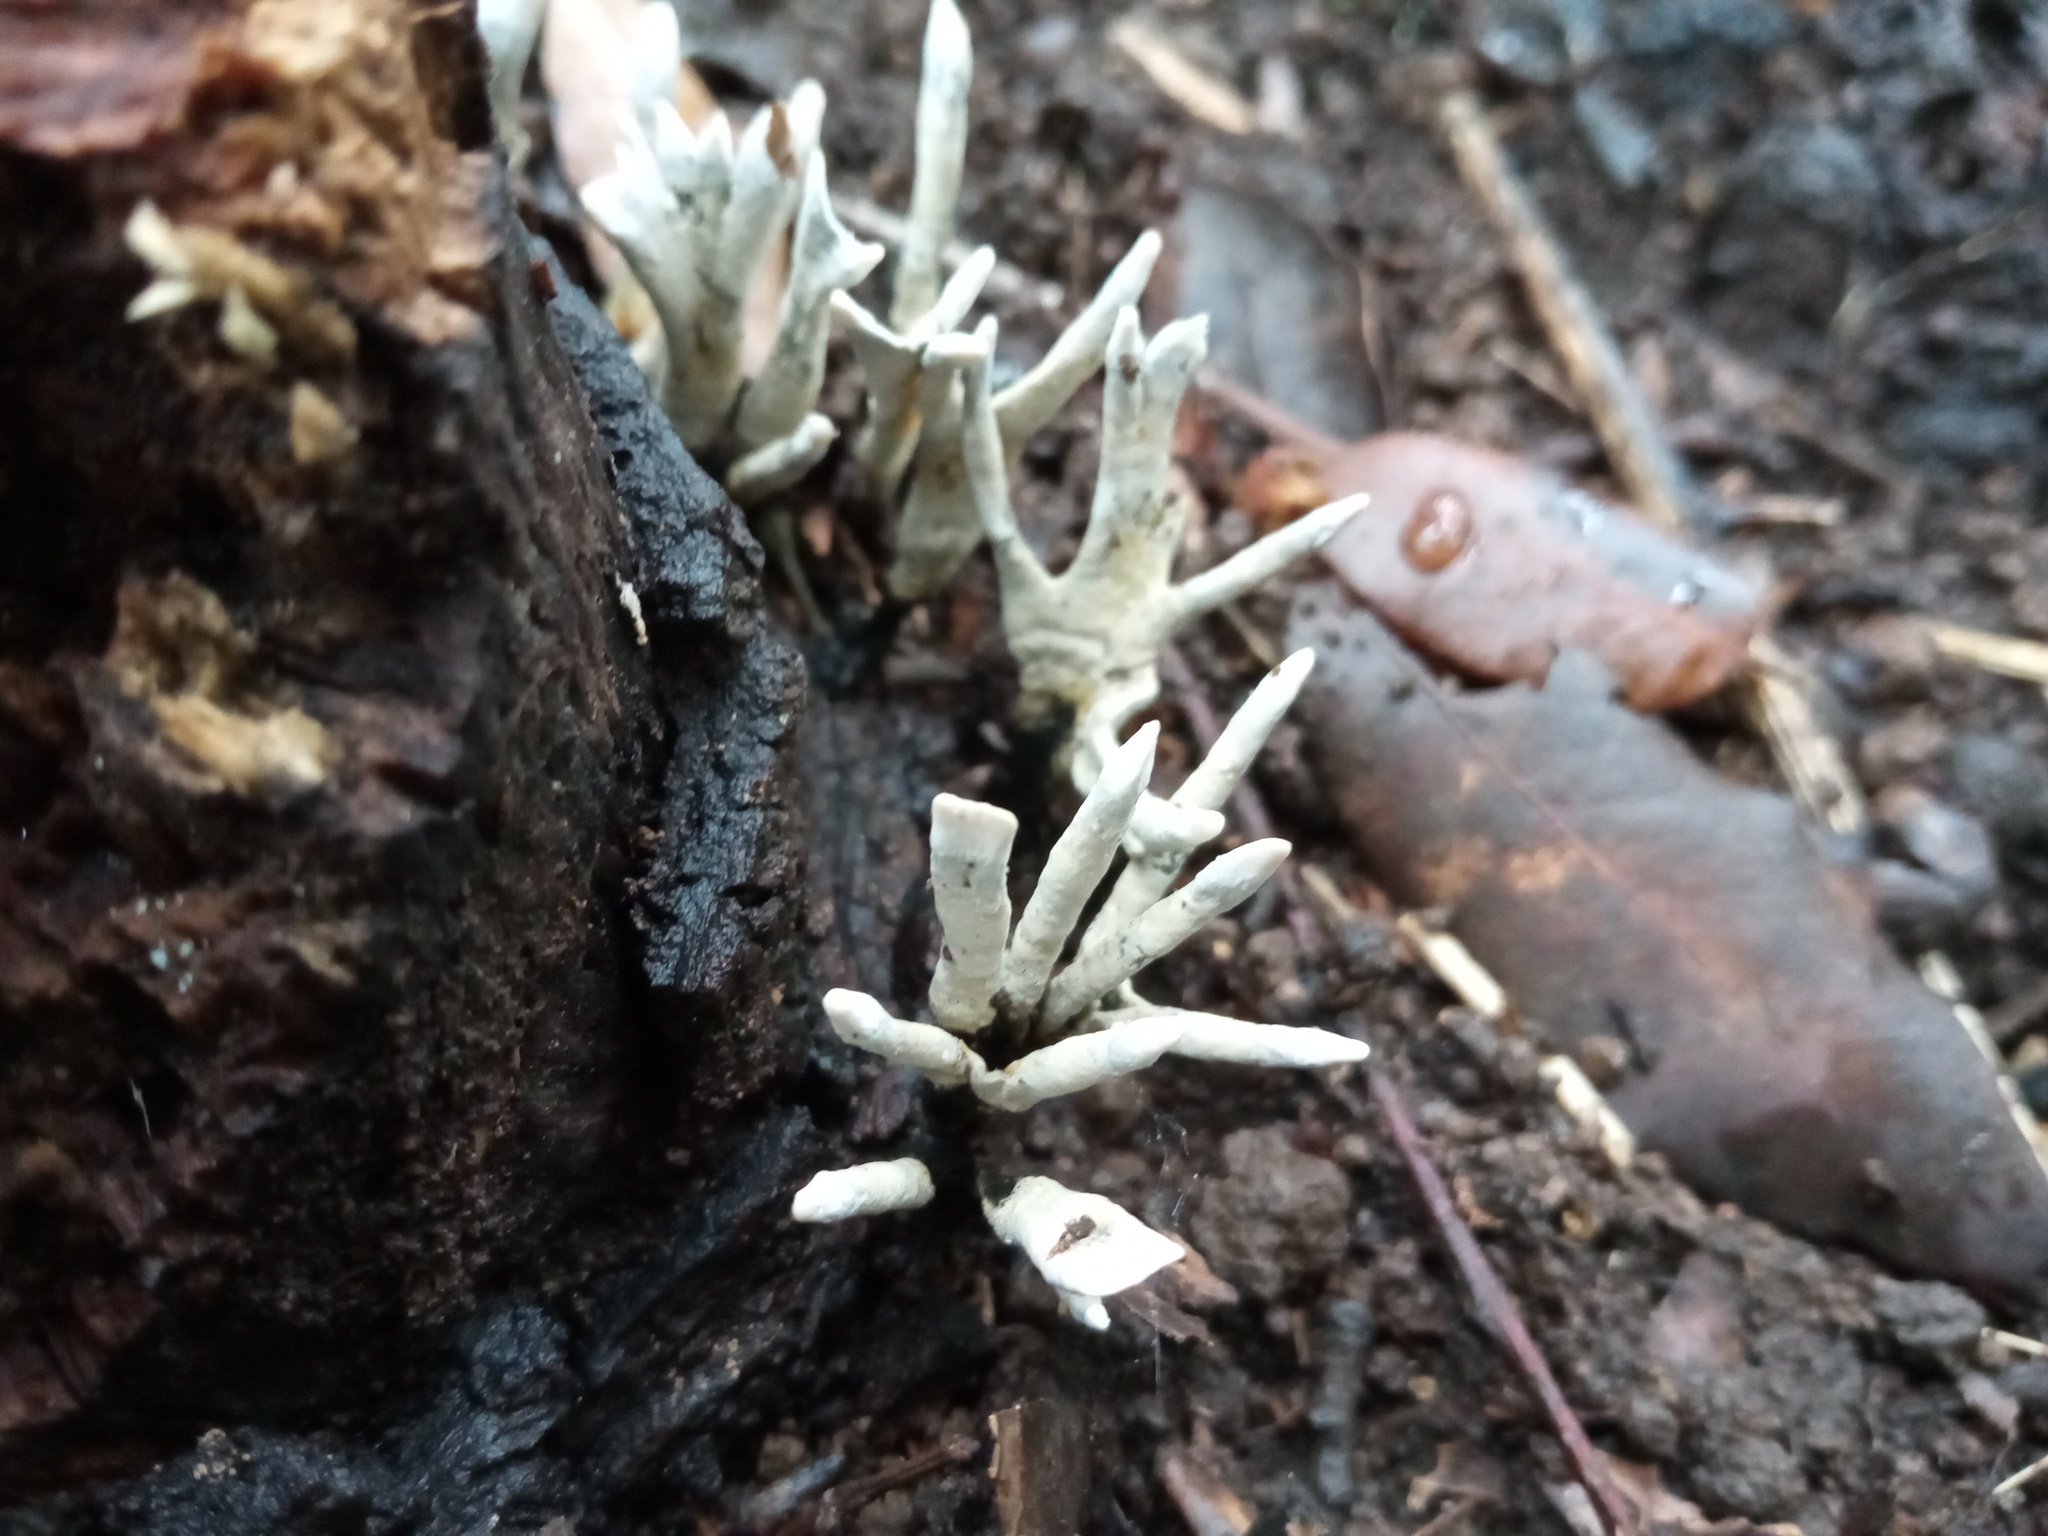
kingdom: Fungi
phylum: Ascomycota
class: Sordariomycetes
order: Xylariales
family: Xylariaceae
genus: Xylaria
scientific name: Xylaria hypoxylon
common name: Candle-snuff fungus
